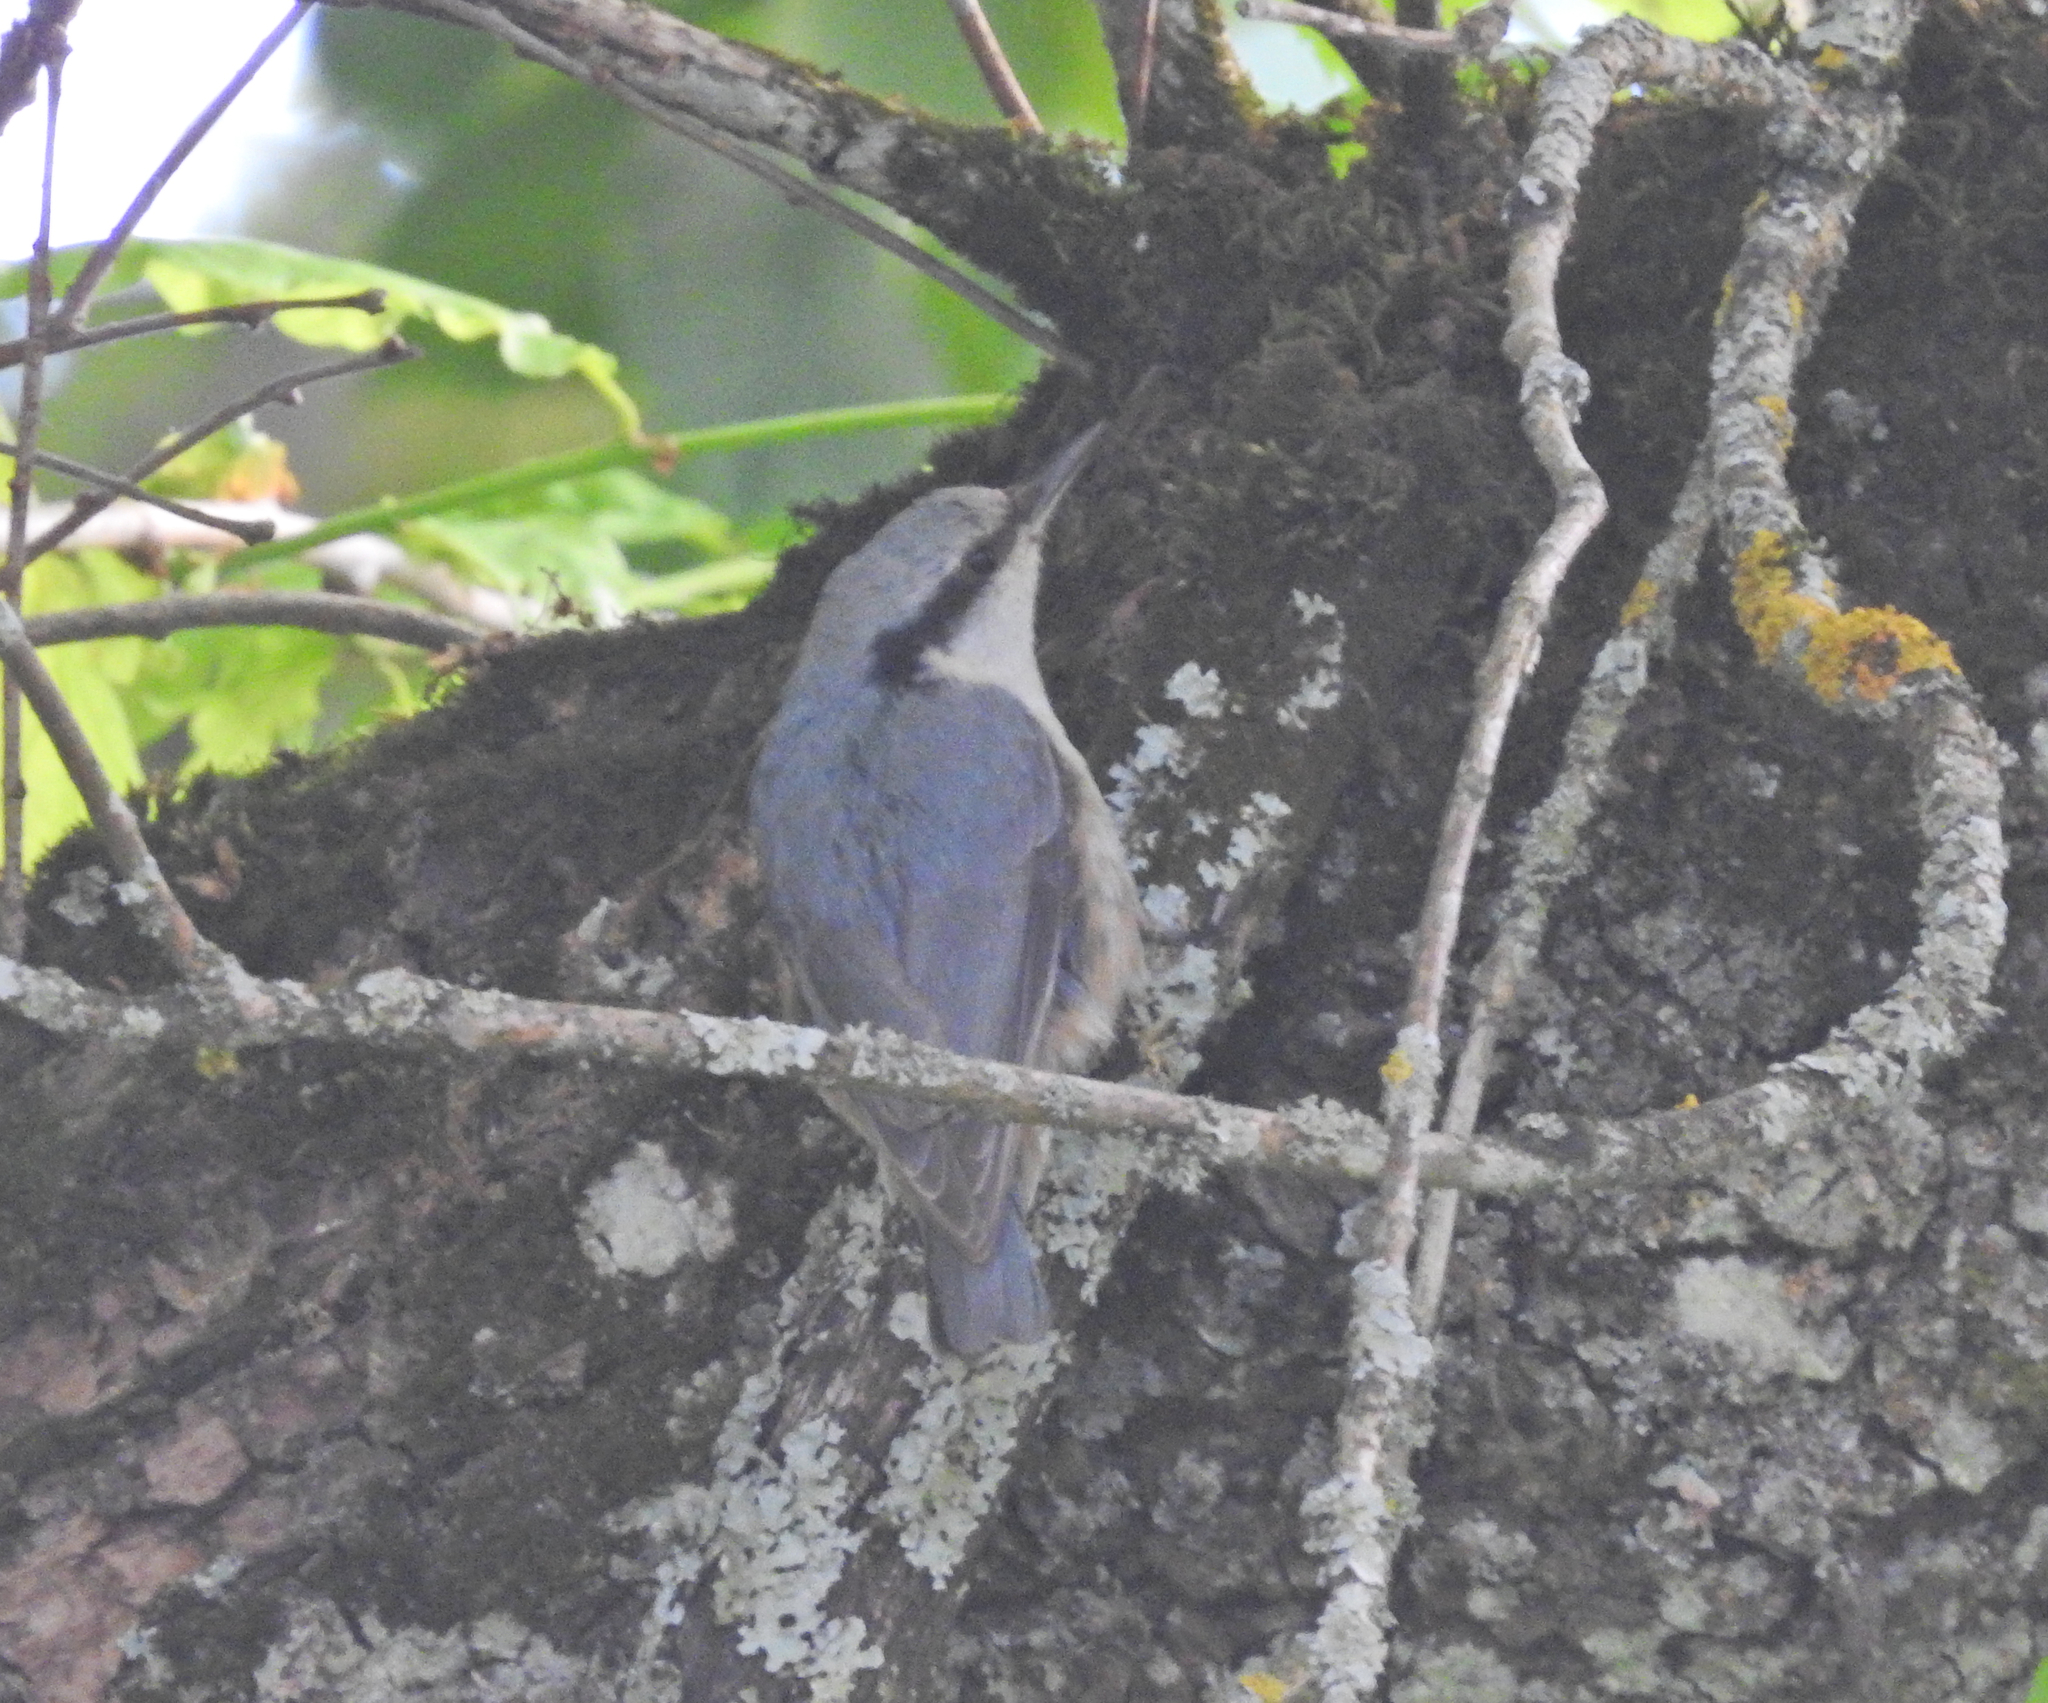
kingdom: Animalia
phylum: Chordata
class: Aves
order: Passeriformes
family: Sittidae
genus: Sitta
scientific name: Sitta europaea
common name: Eurasian nuthatch
